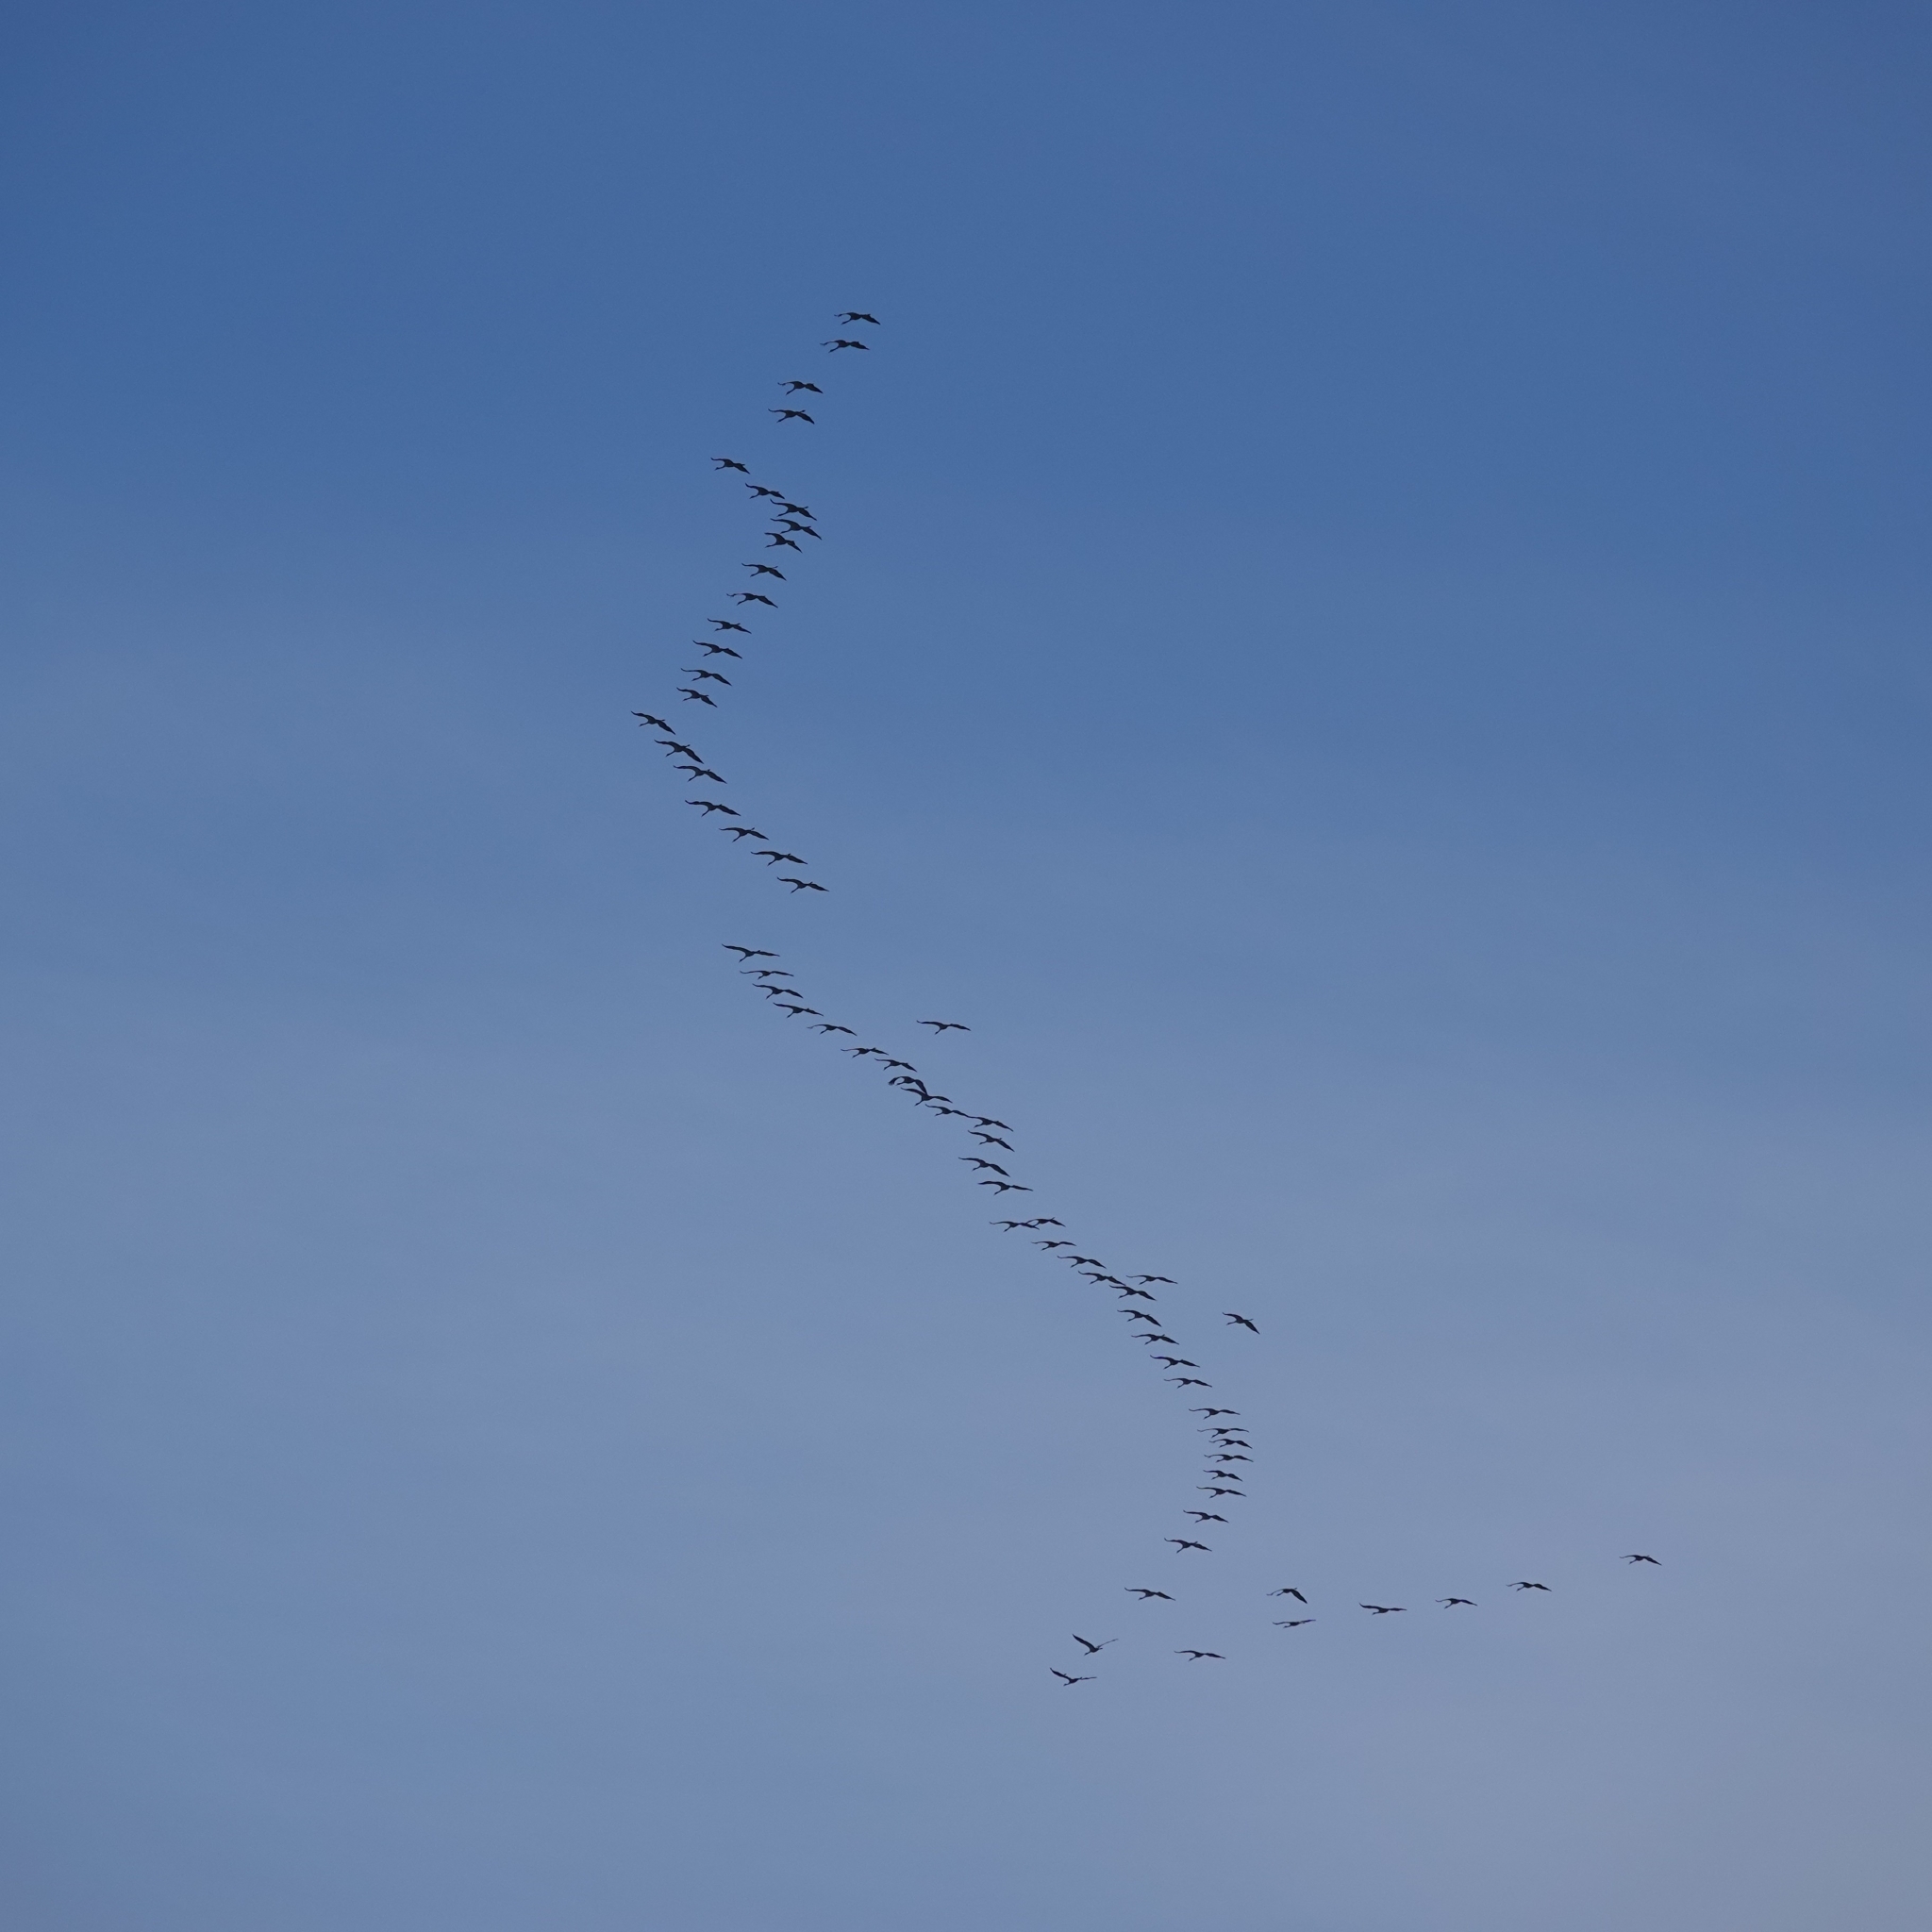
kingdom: Animalia
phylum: Chordata
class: Aves
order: Gruiformes
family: Gruidae
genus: Grus
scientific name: Grus grus
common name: Common crane
